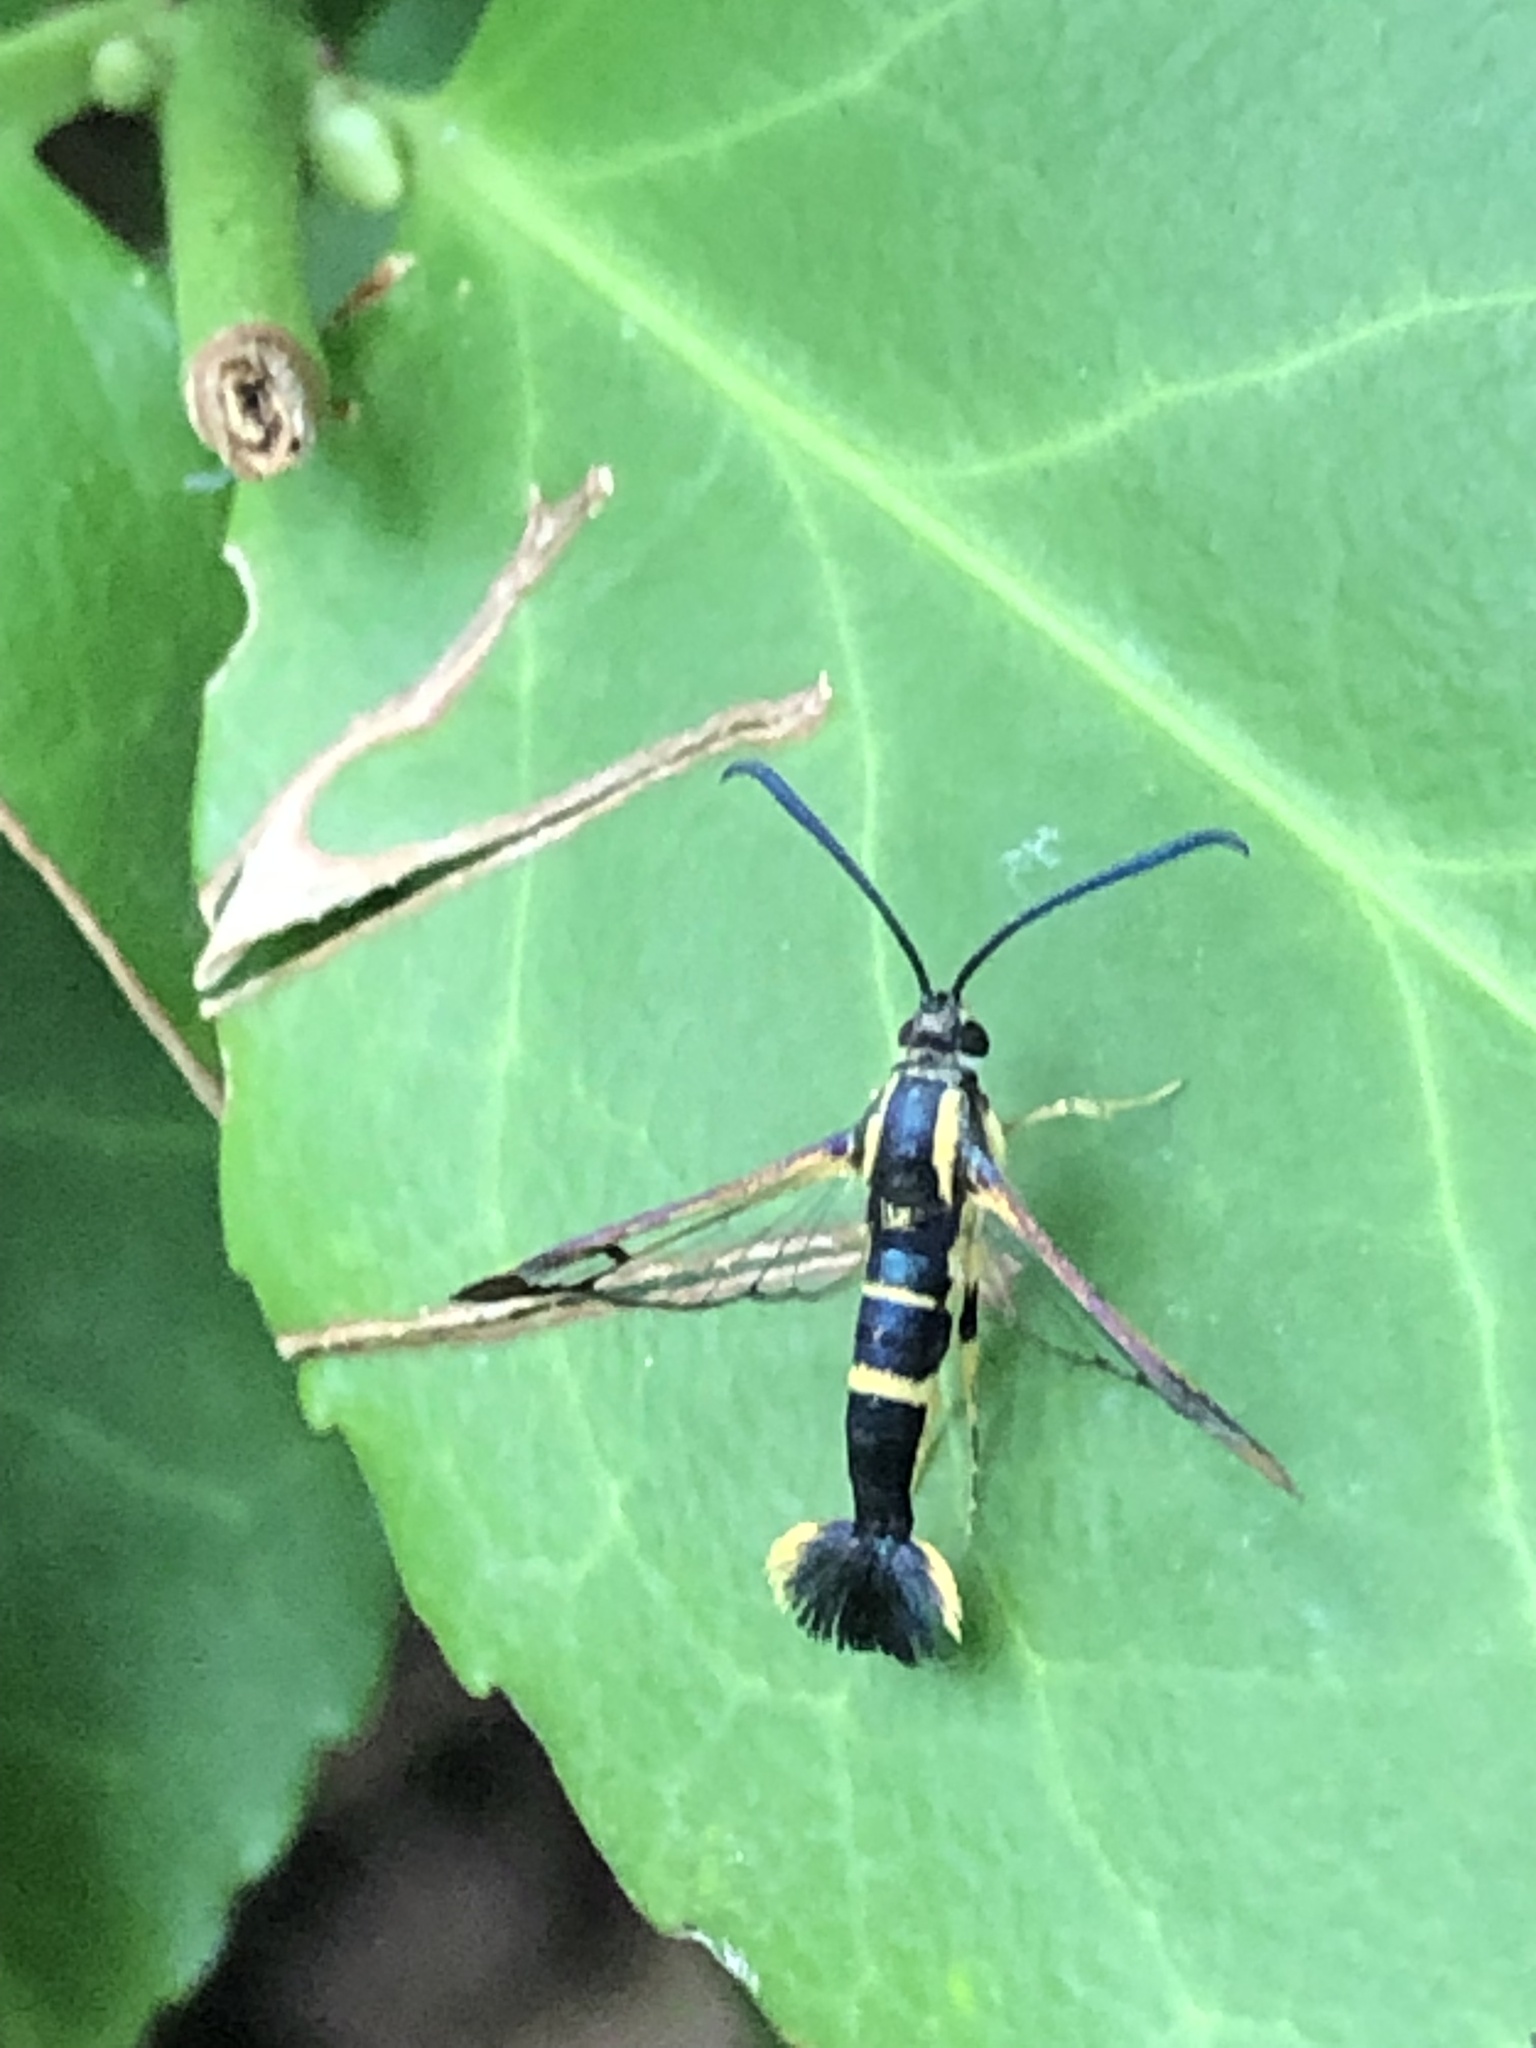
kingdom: Animalia
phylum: Arthropoda
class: Insecta
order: Lepidoptera
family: Sesiidae
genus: Synanthedon
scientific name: Synanthedon scitula
